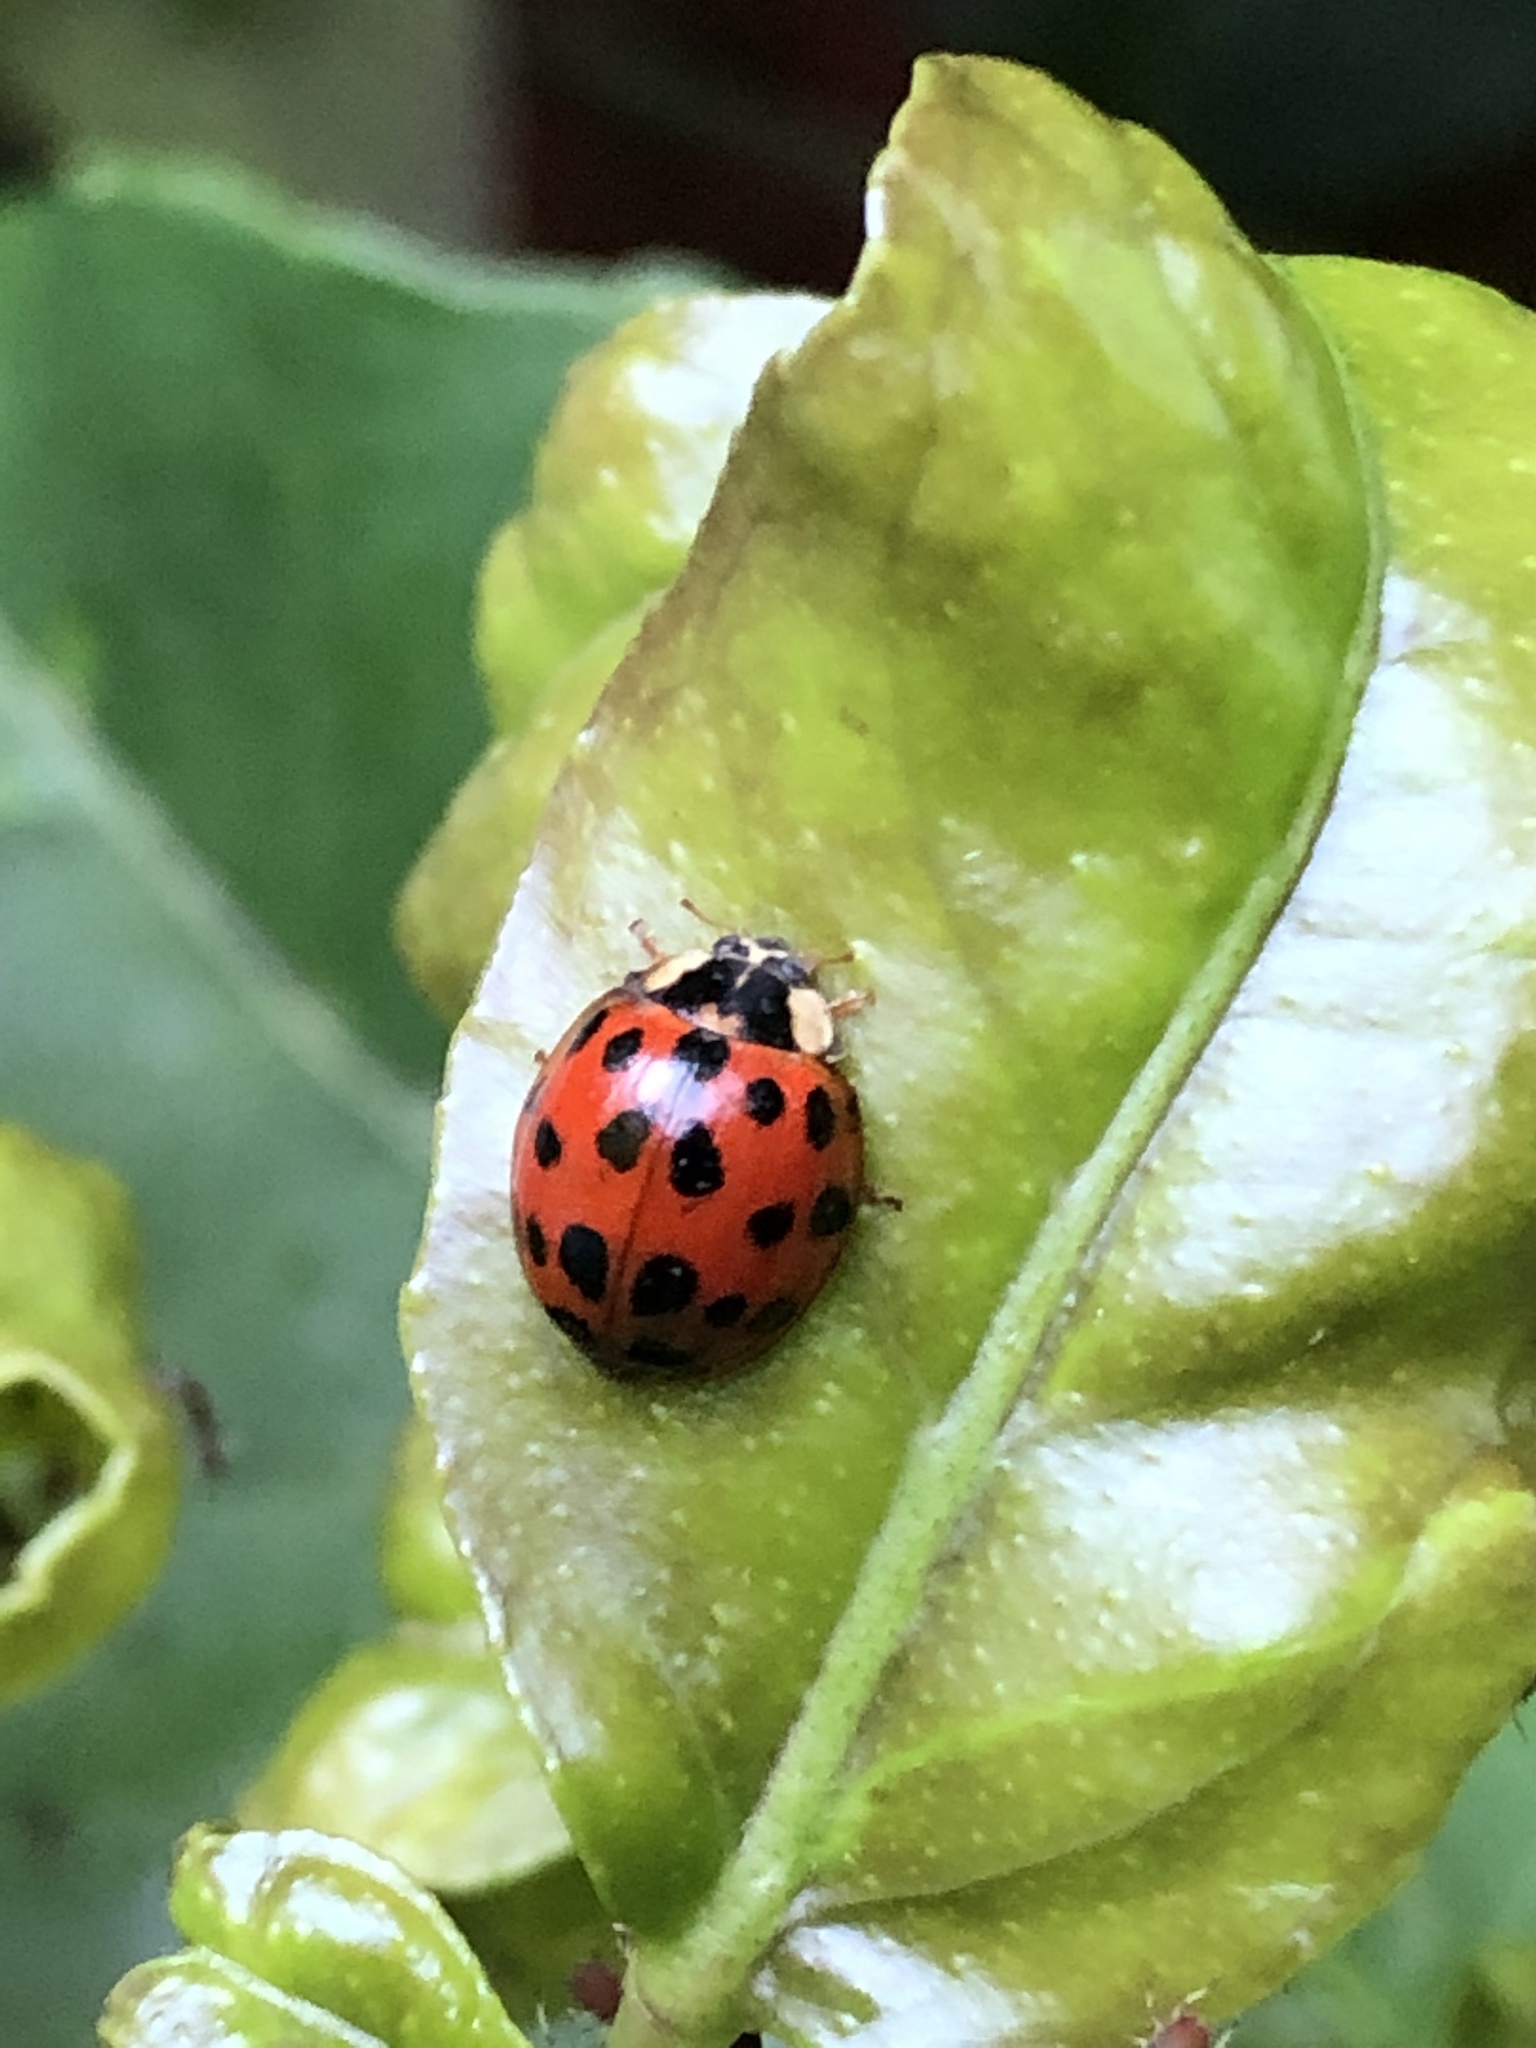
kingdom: Animalia
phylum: Arthropoda
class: Insecta
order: Coleoptera
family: Coccinellidae
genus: Harmonia
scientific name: Harmonia axyridis
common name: Harlequin ladybird
